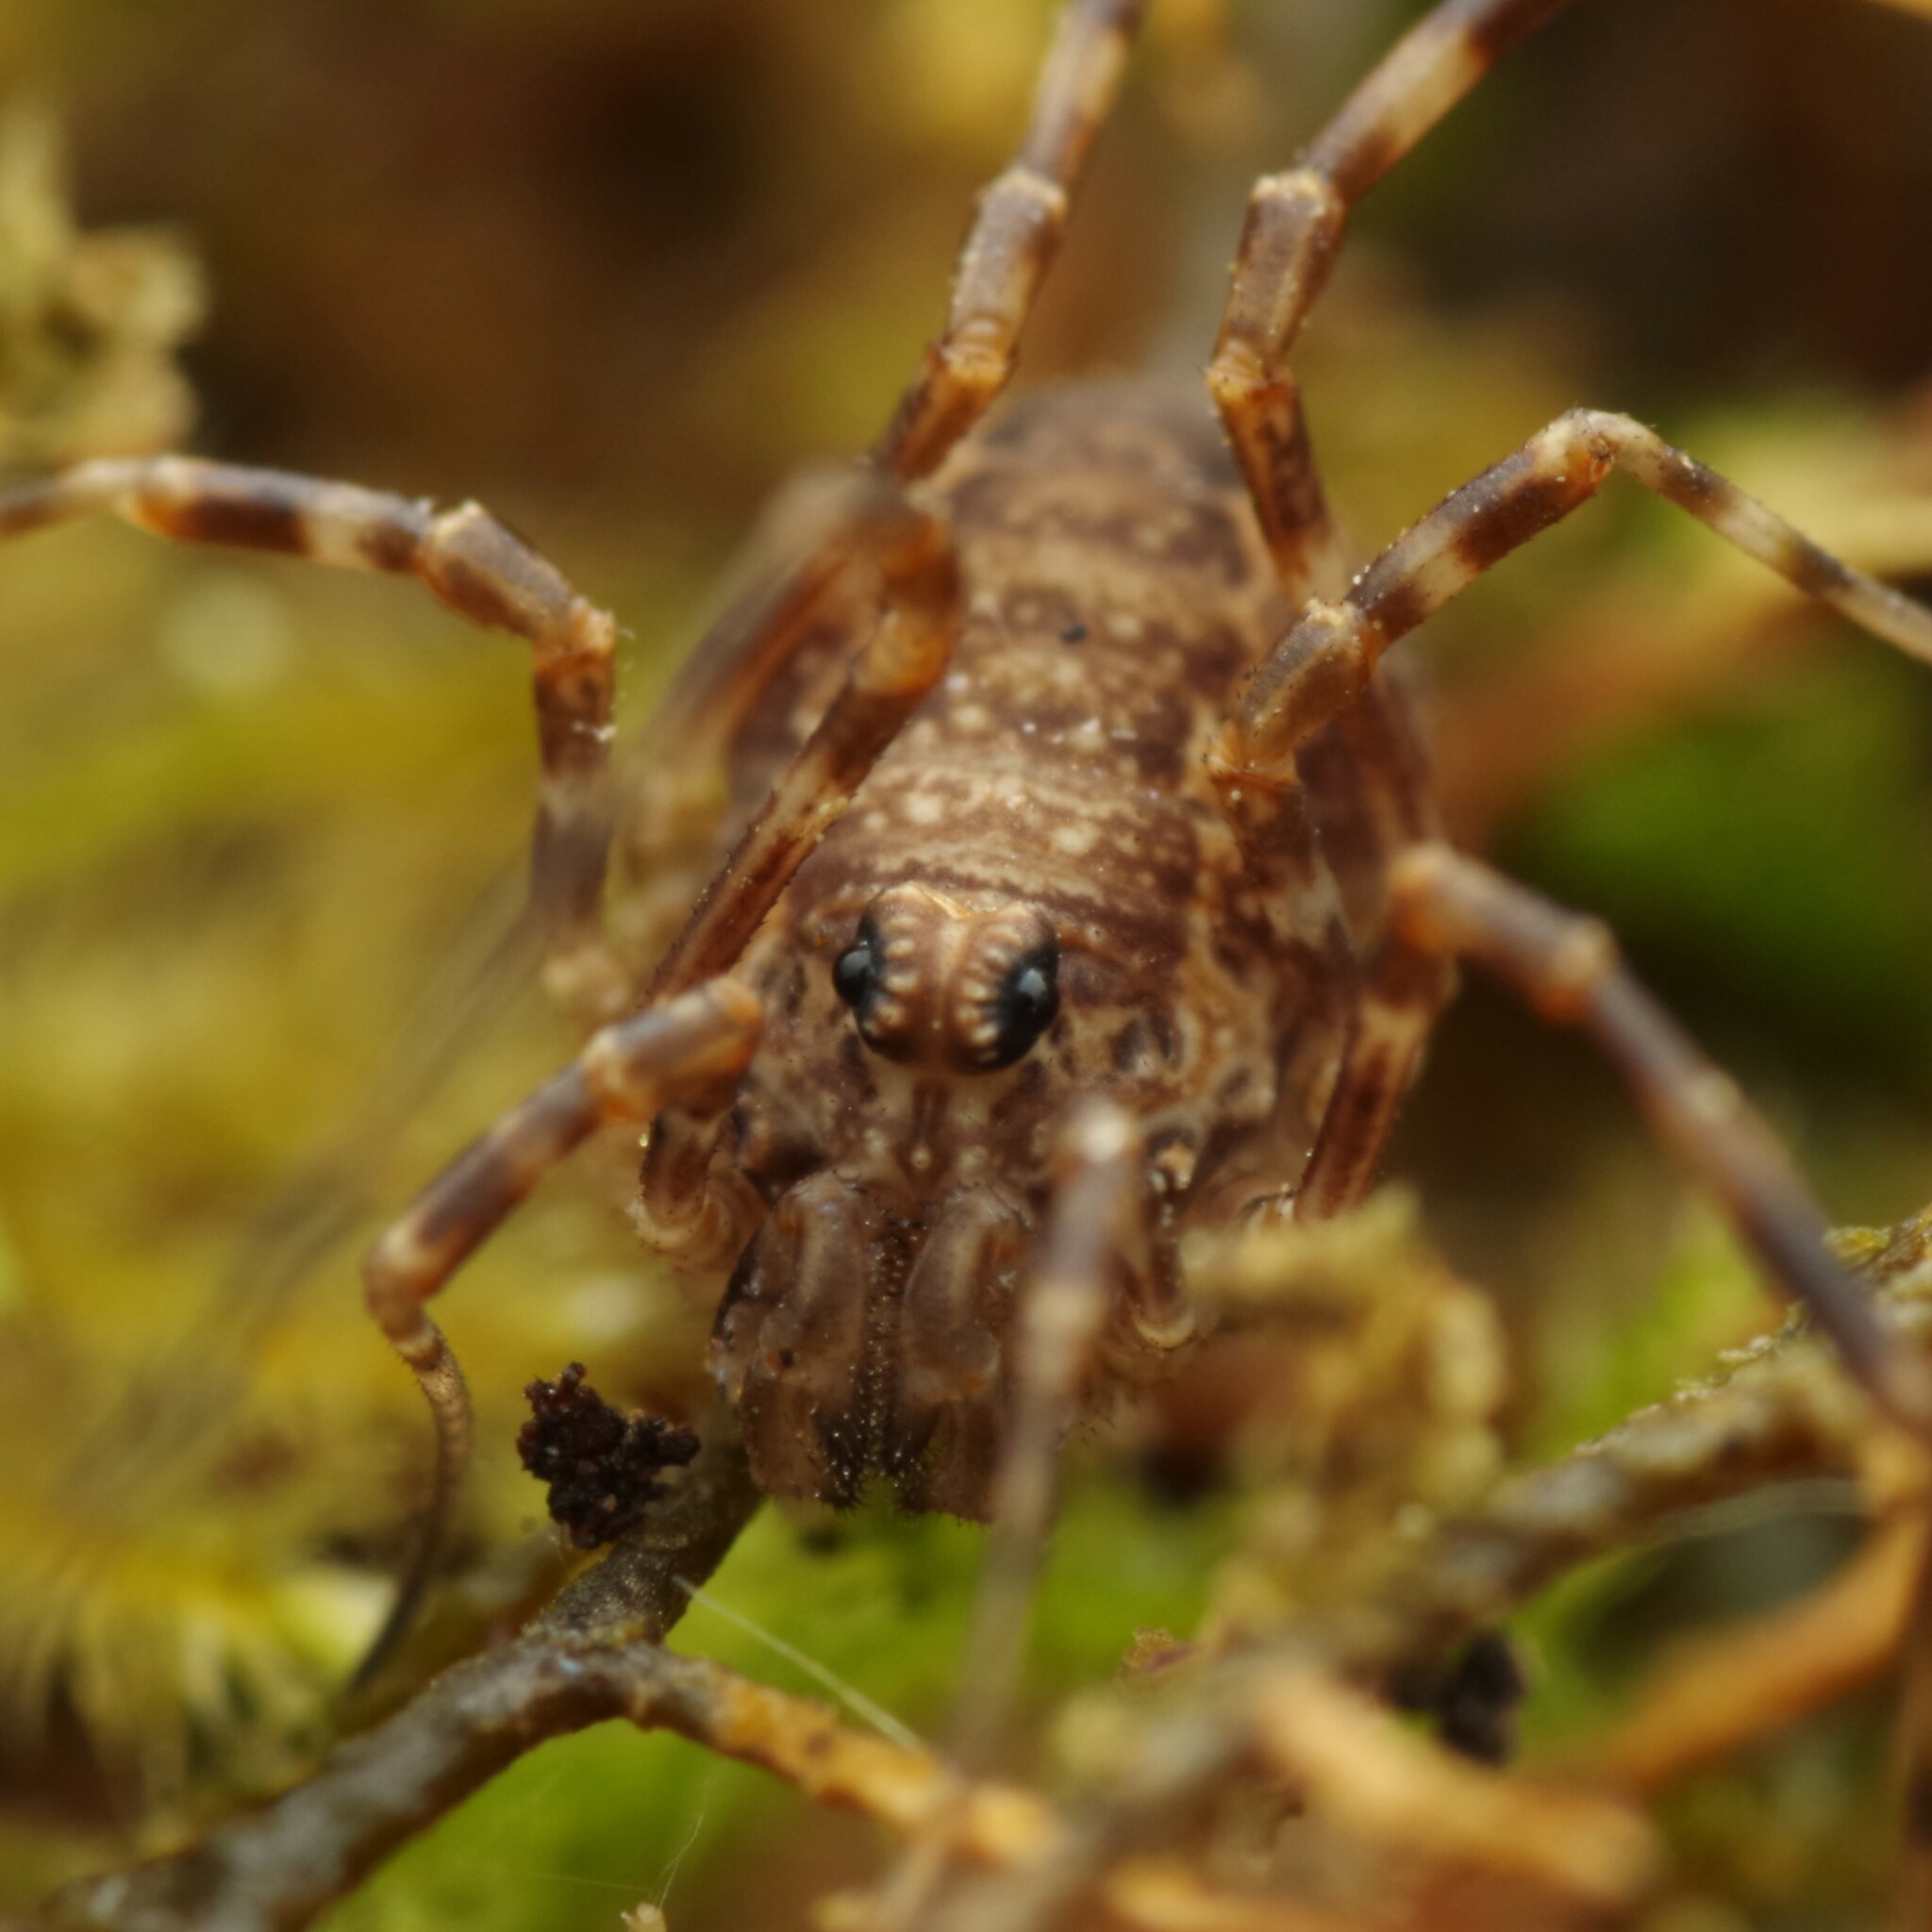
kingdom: Animalia
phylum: Arthropoda
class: Arachnida
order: Opiliones
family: Phalangiidae
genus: Rilaena
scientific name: Rilaena triangularis
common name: Spring harvestman
